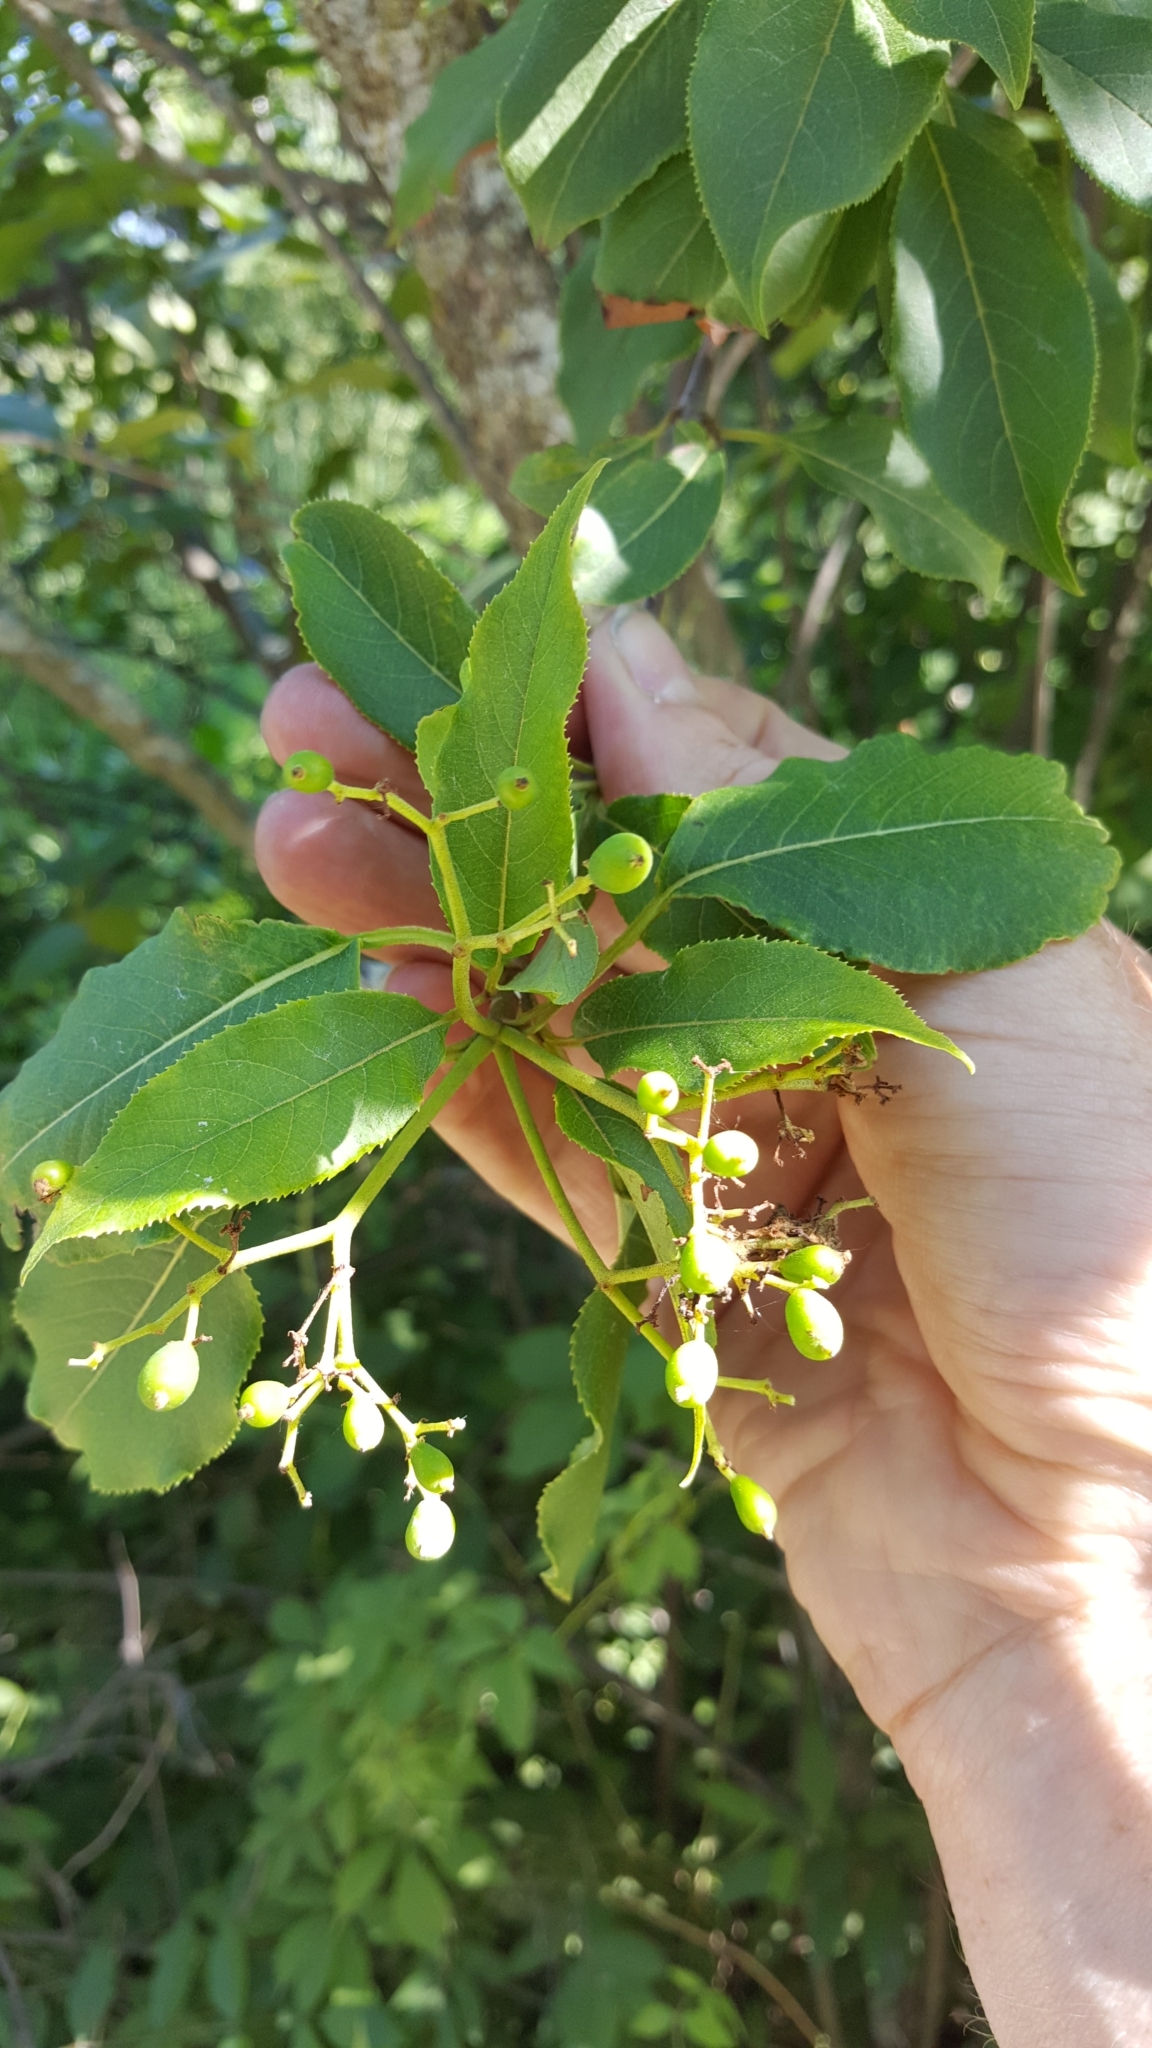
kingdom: Plantae
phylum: Tracheophyta
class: Magnoliopsida
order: Dipsacales
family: Viburnaceae
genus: Viburnum
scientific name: Viburnum lentago
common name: Black haw
